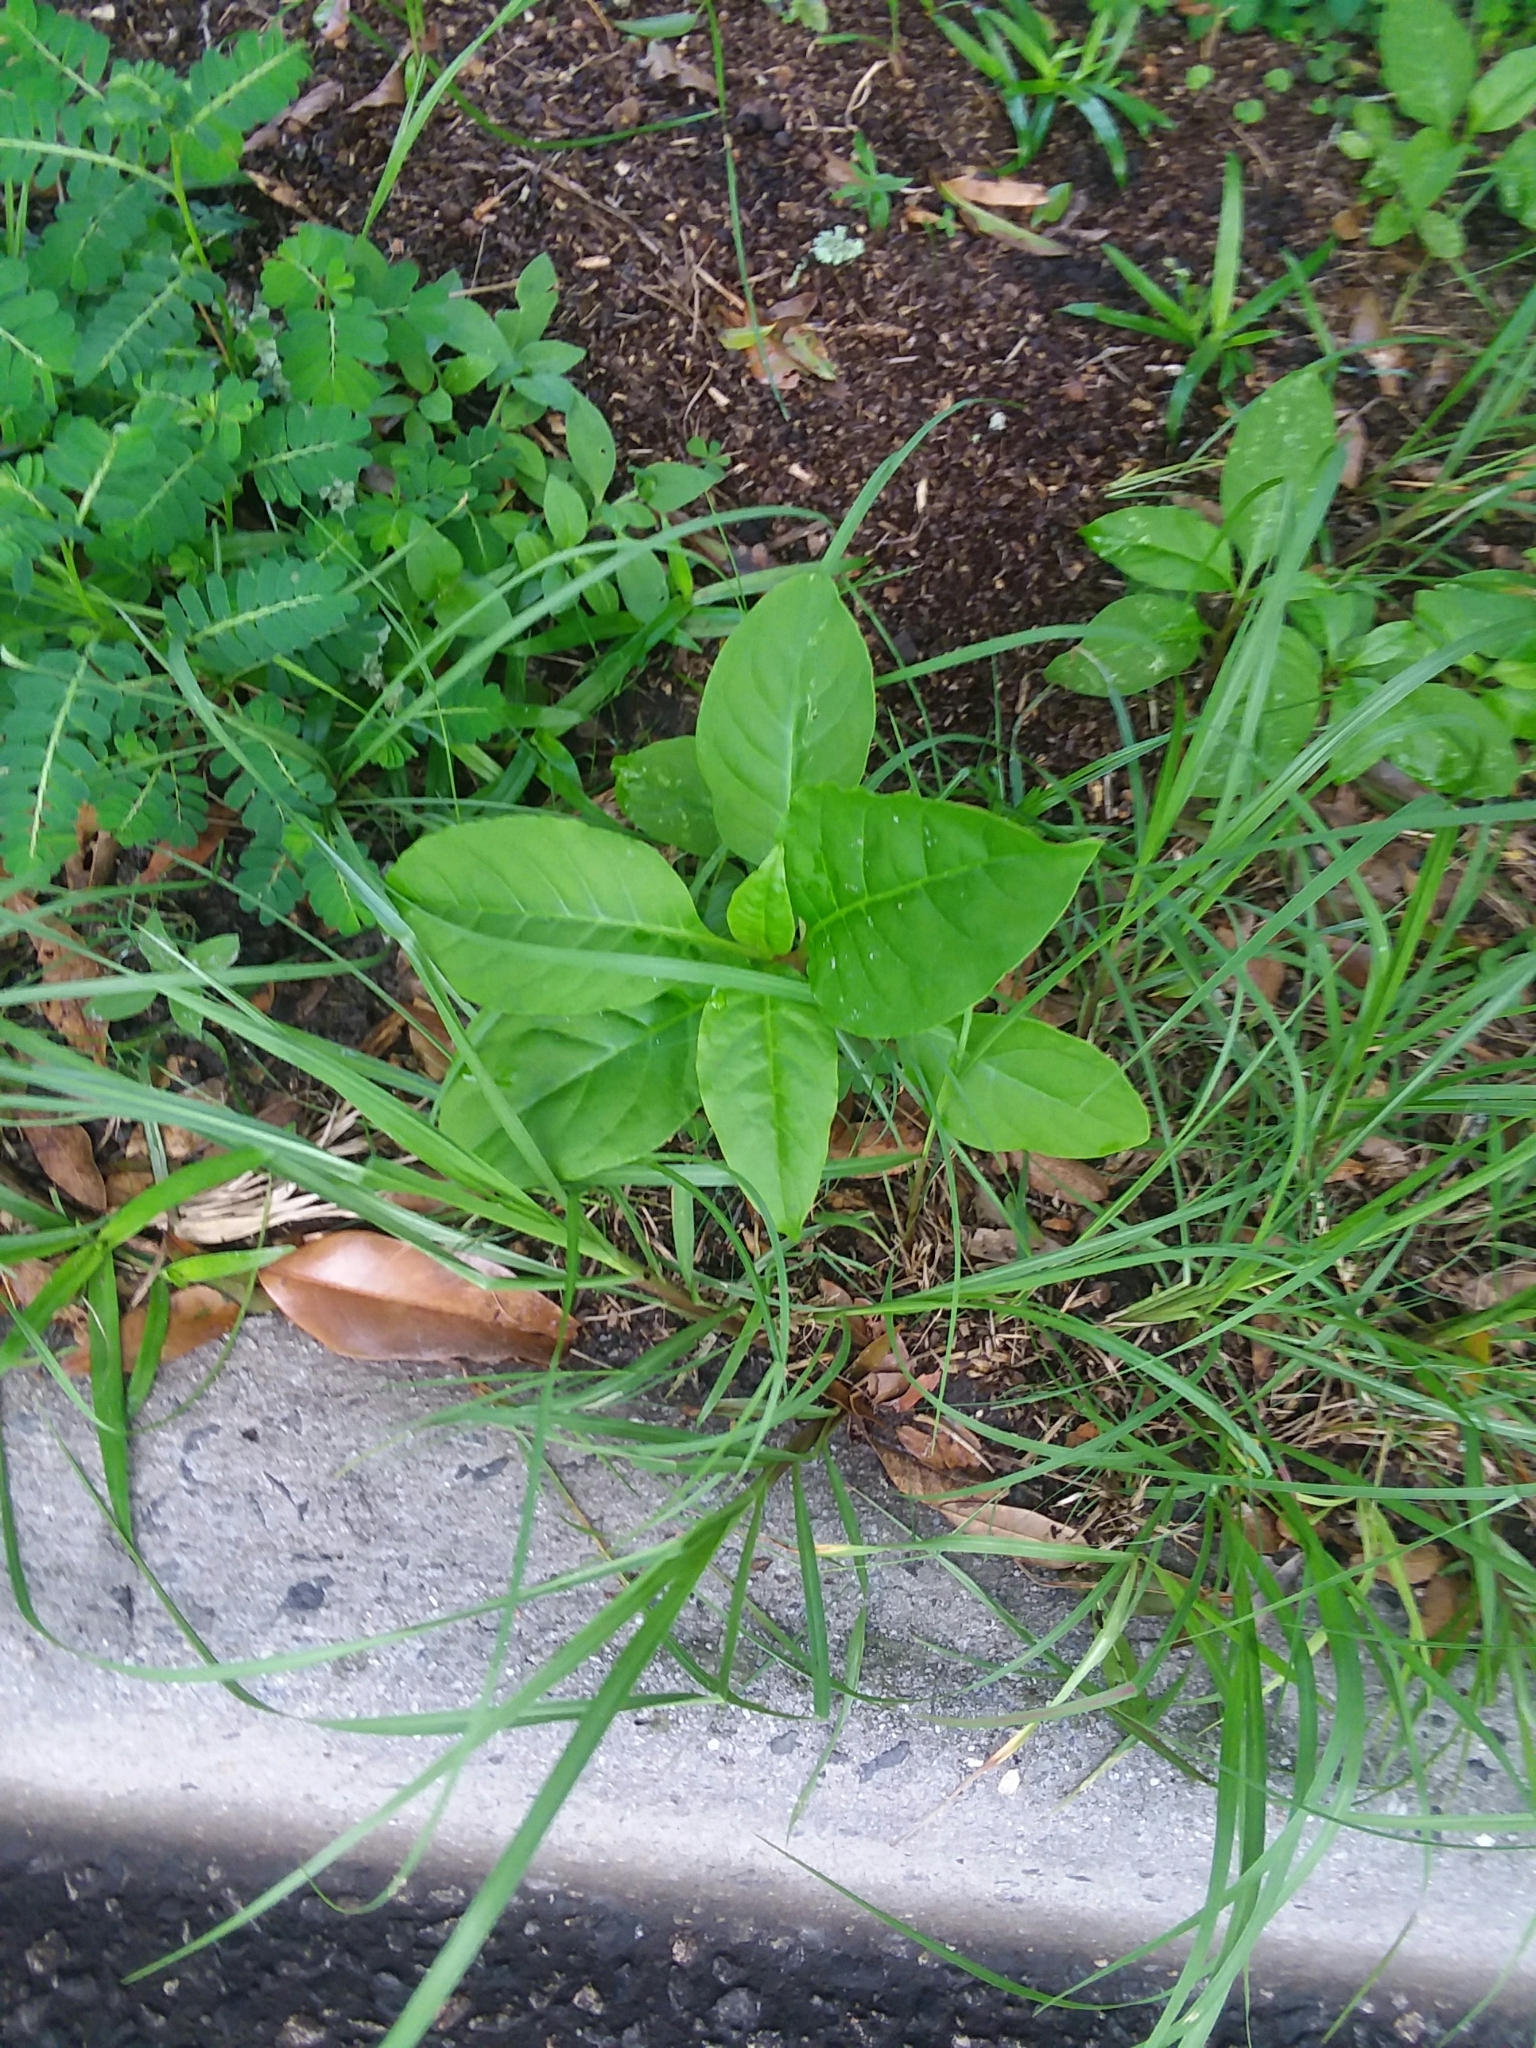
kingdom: Plantae
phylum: Tracheophyta
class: Magnoliopsida
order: Caryophyllales
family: Phytolaccaceae
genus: Phytolacca
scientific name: Phytolacca americana
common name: American pokeweed
